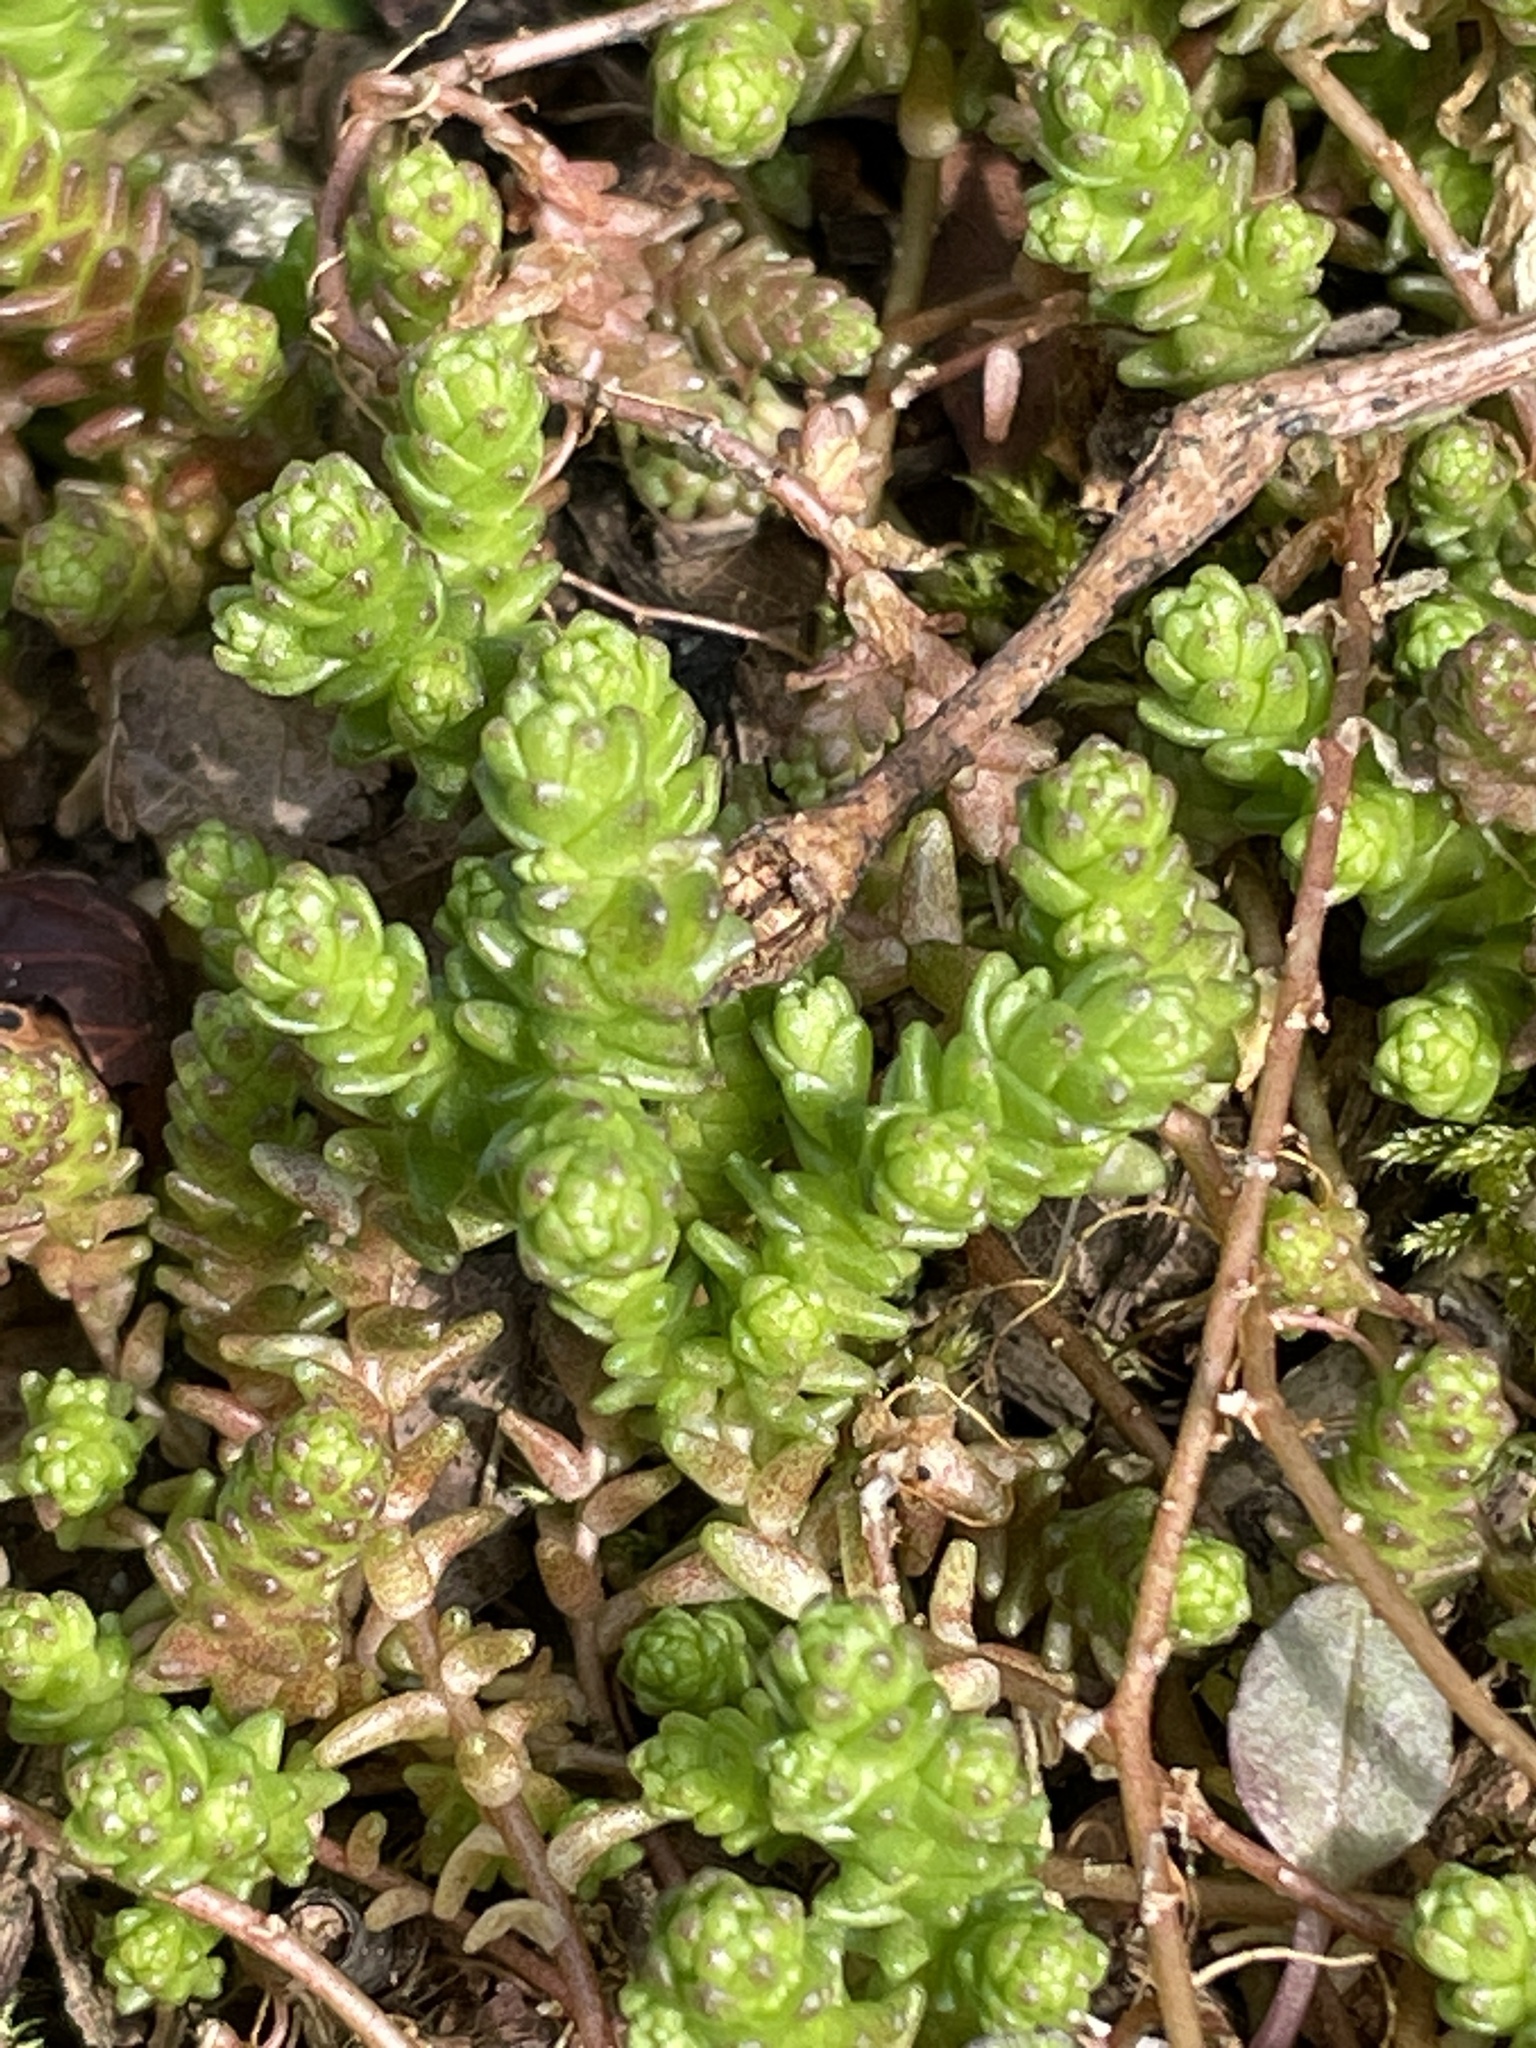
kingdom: Plantae
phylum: Tracheophyta
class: Magnoliopsida
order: Saxifragales
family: Crassulaceae
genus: Sedum
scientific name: Sedum acre
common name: Biting stonecrop
